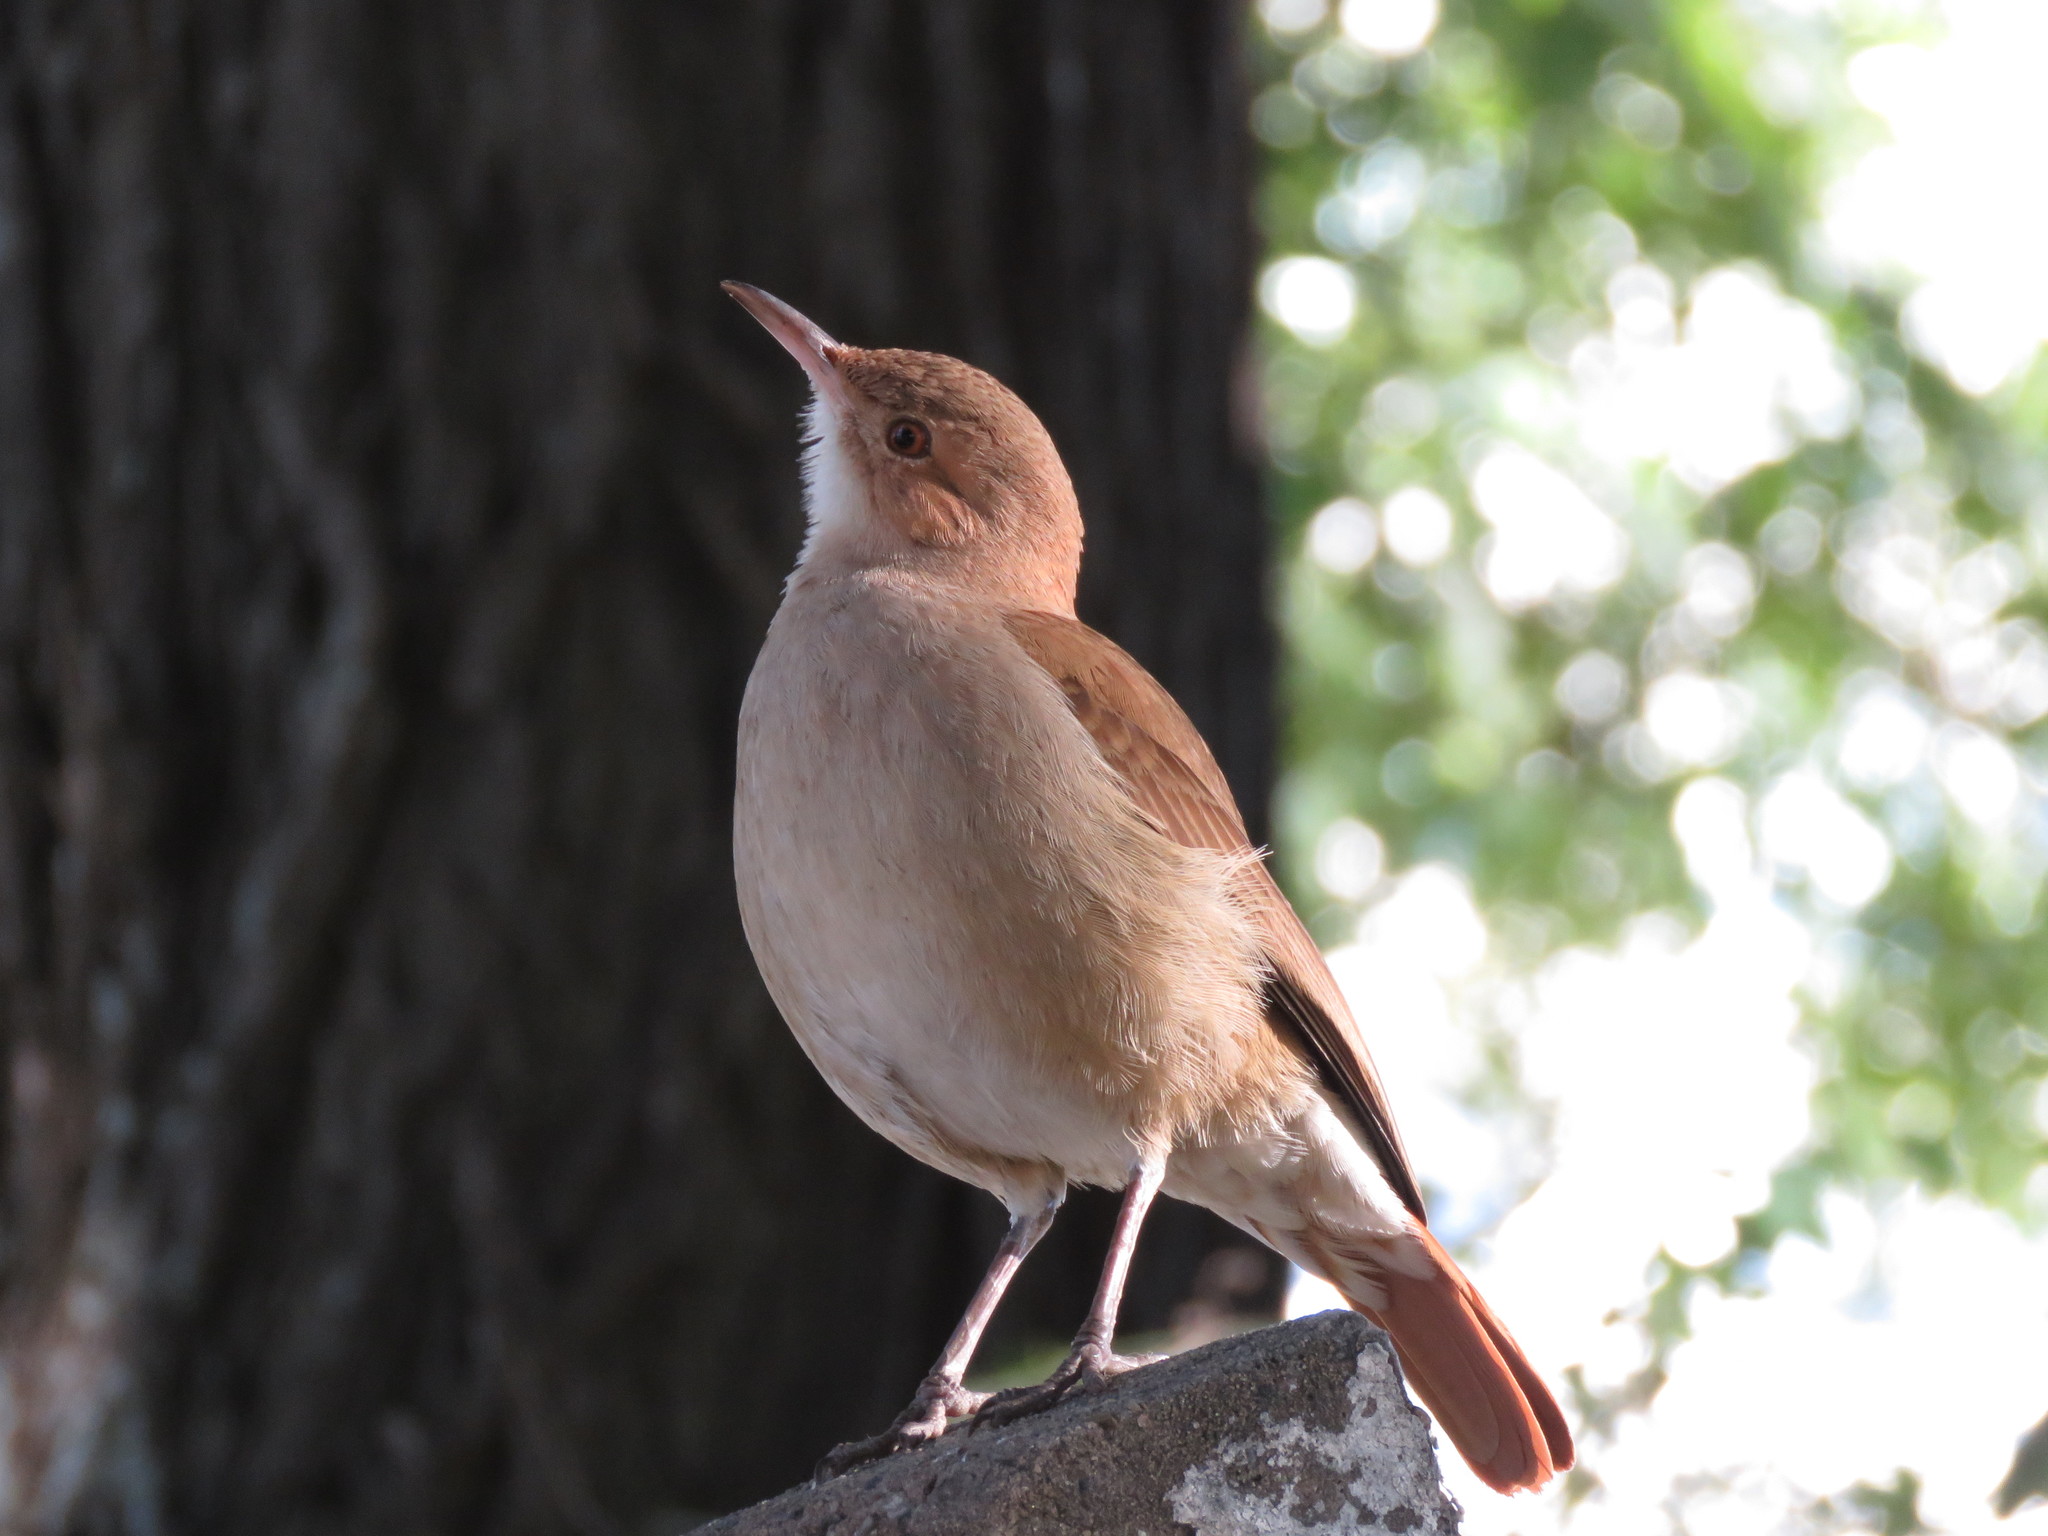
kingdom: Animalia
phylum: Chordata
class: Aves
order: Passeriformes
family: Furnariidae
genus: Furnarius
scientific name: Furnarius rufus
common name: Rufous hornero
